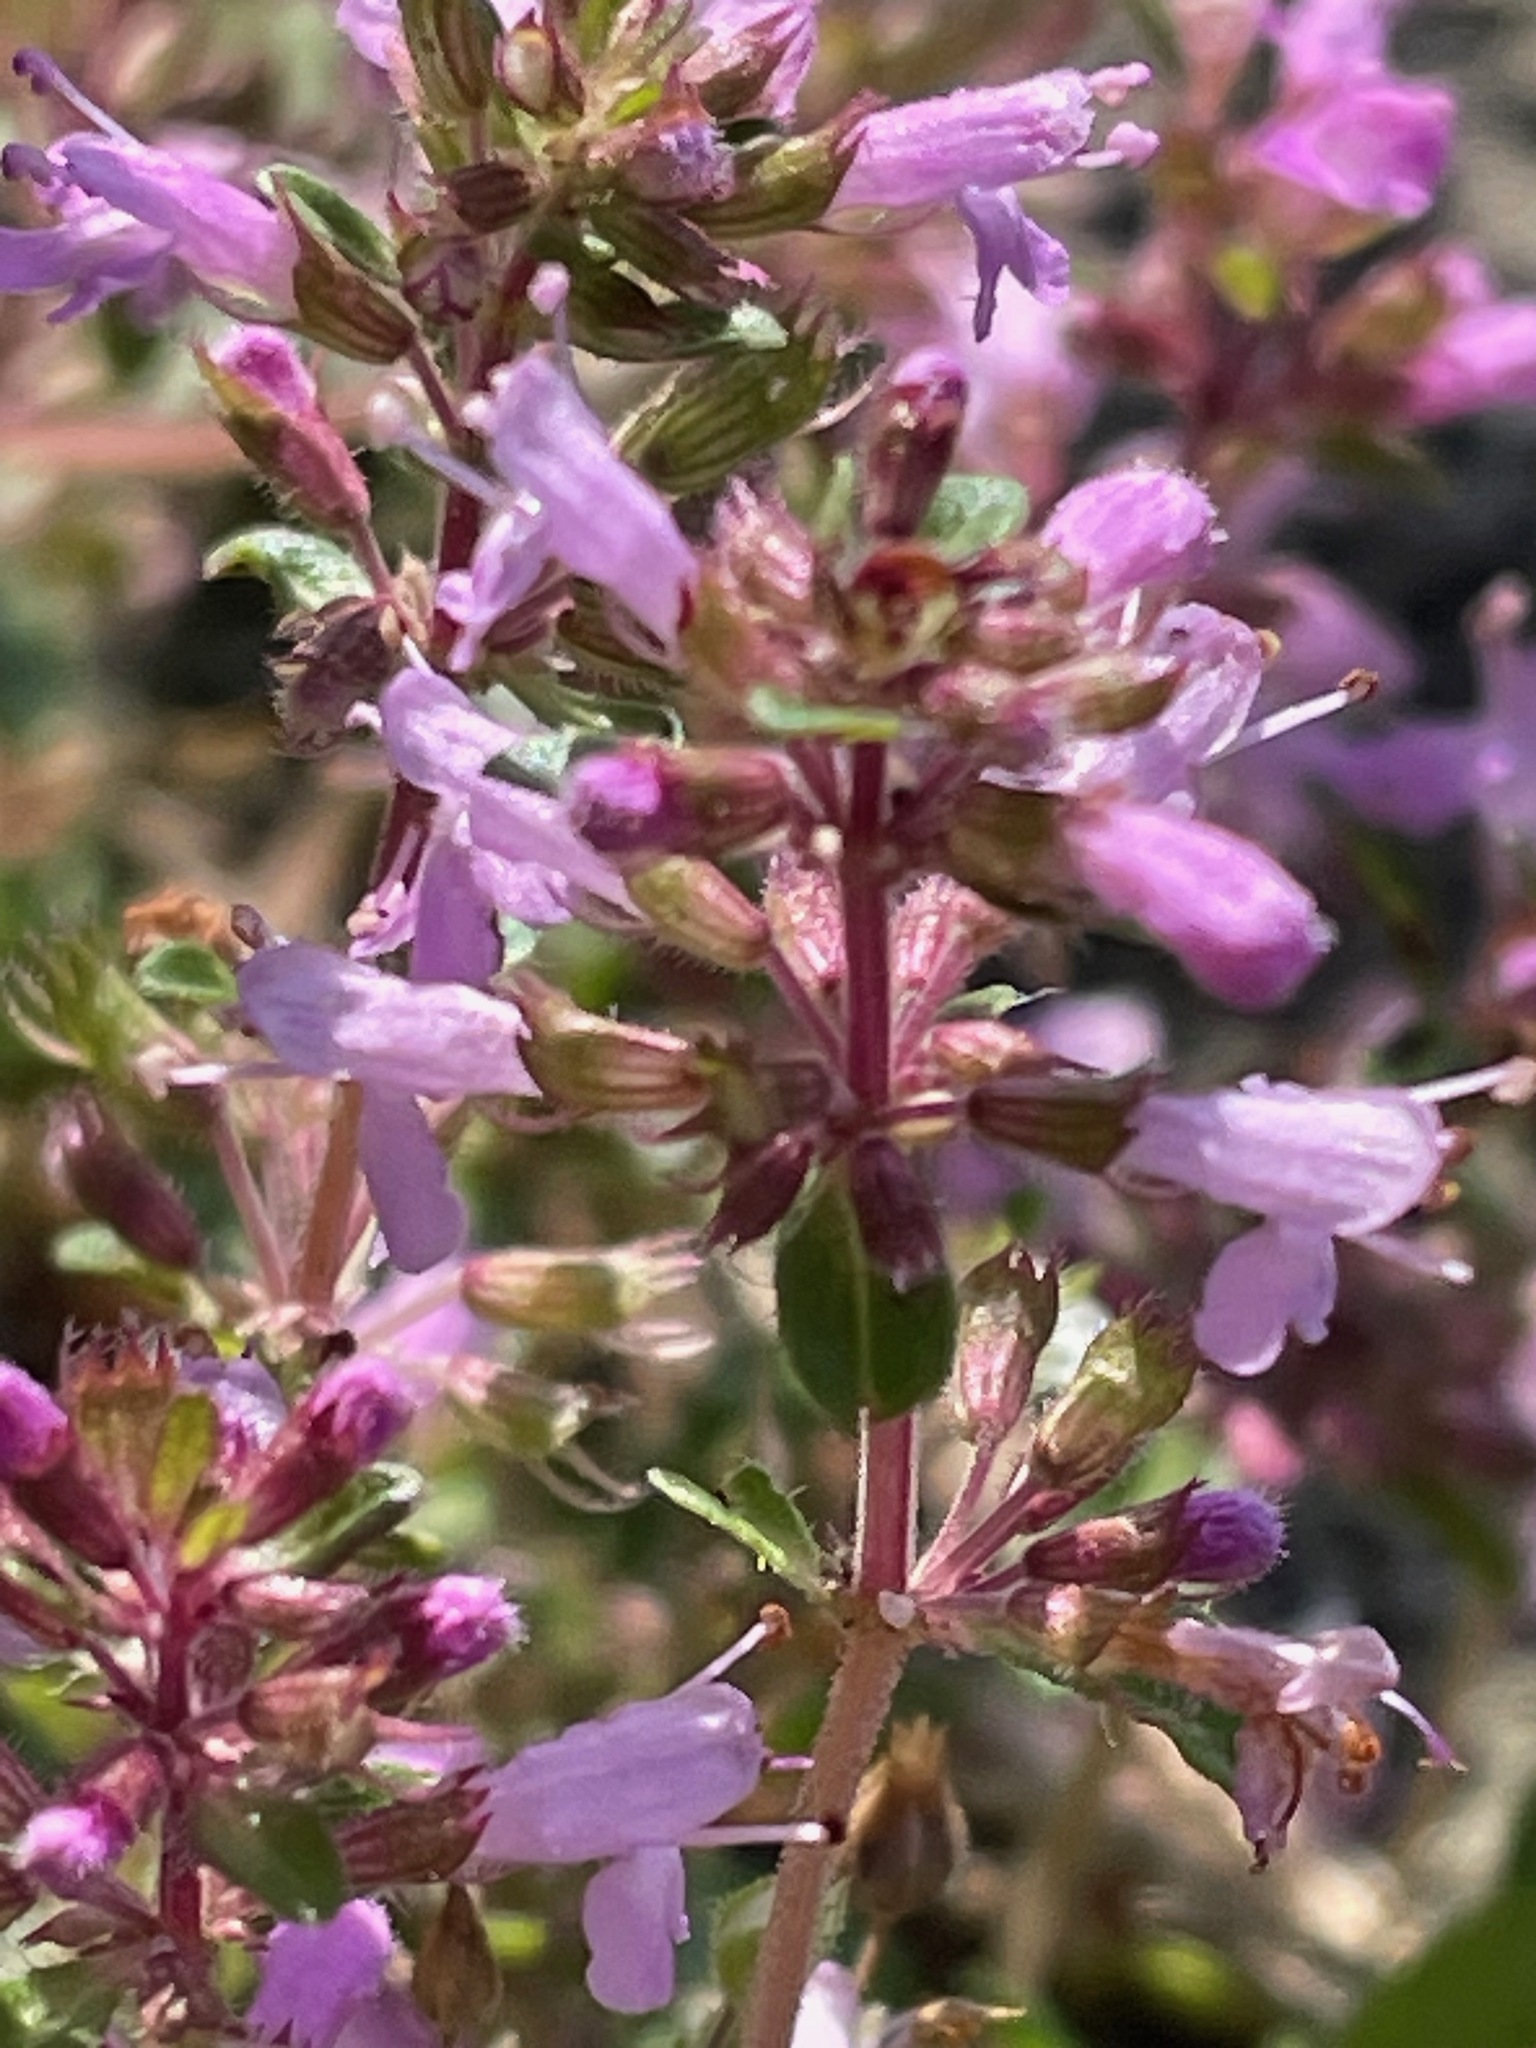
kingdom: Plantae
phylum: Tracheophyta
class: Magnoliopsida
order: Lamiales
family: Lamiaceae
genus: Thymus
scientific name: Thymus pulegioides
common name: Large thyme
